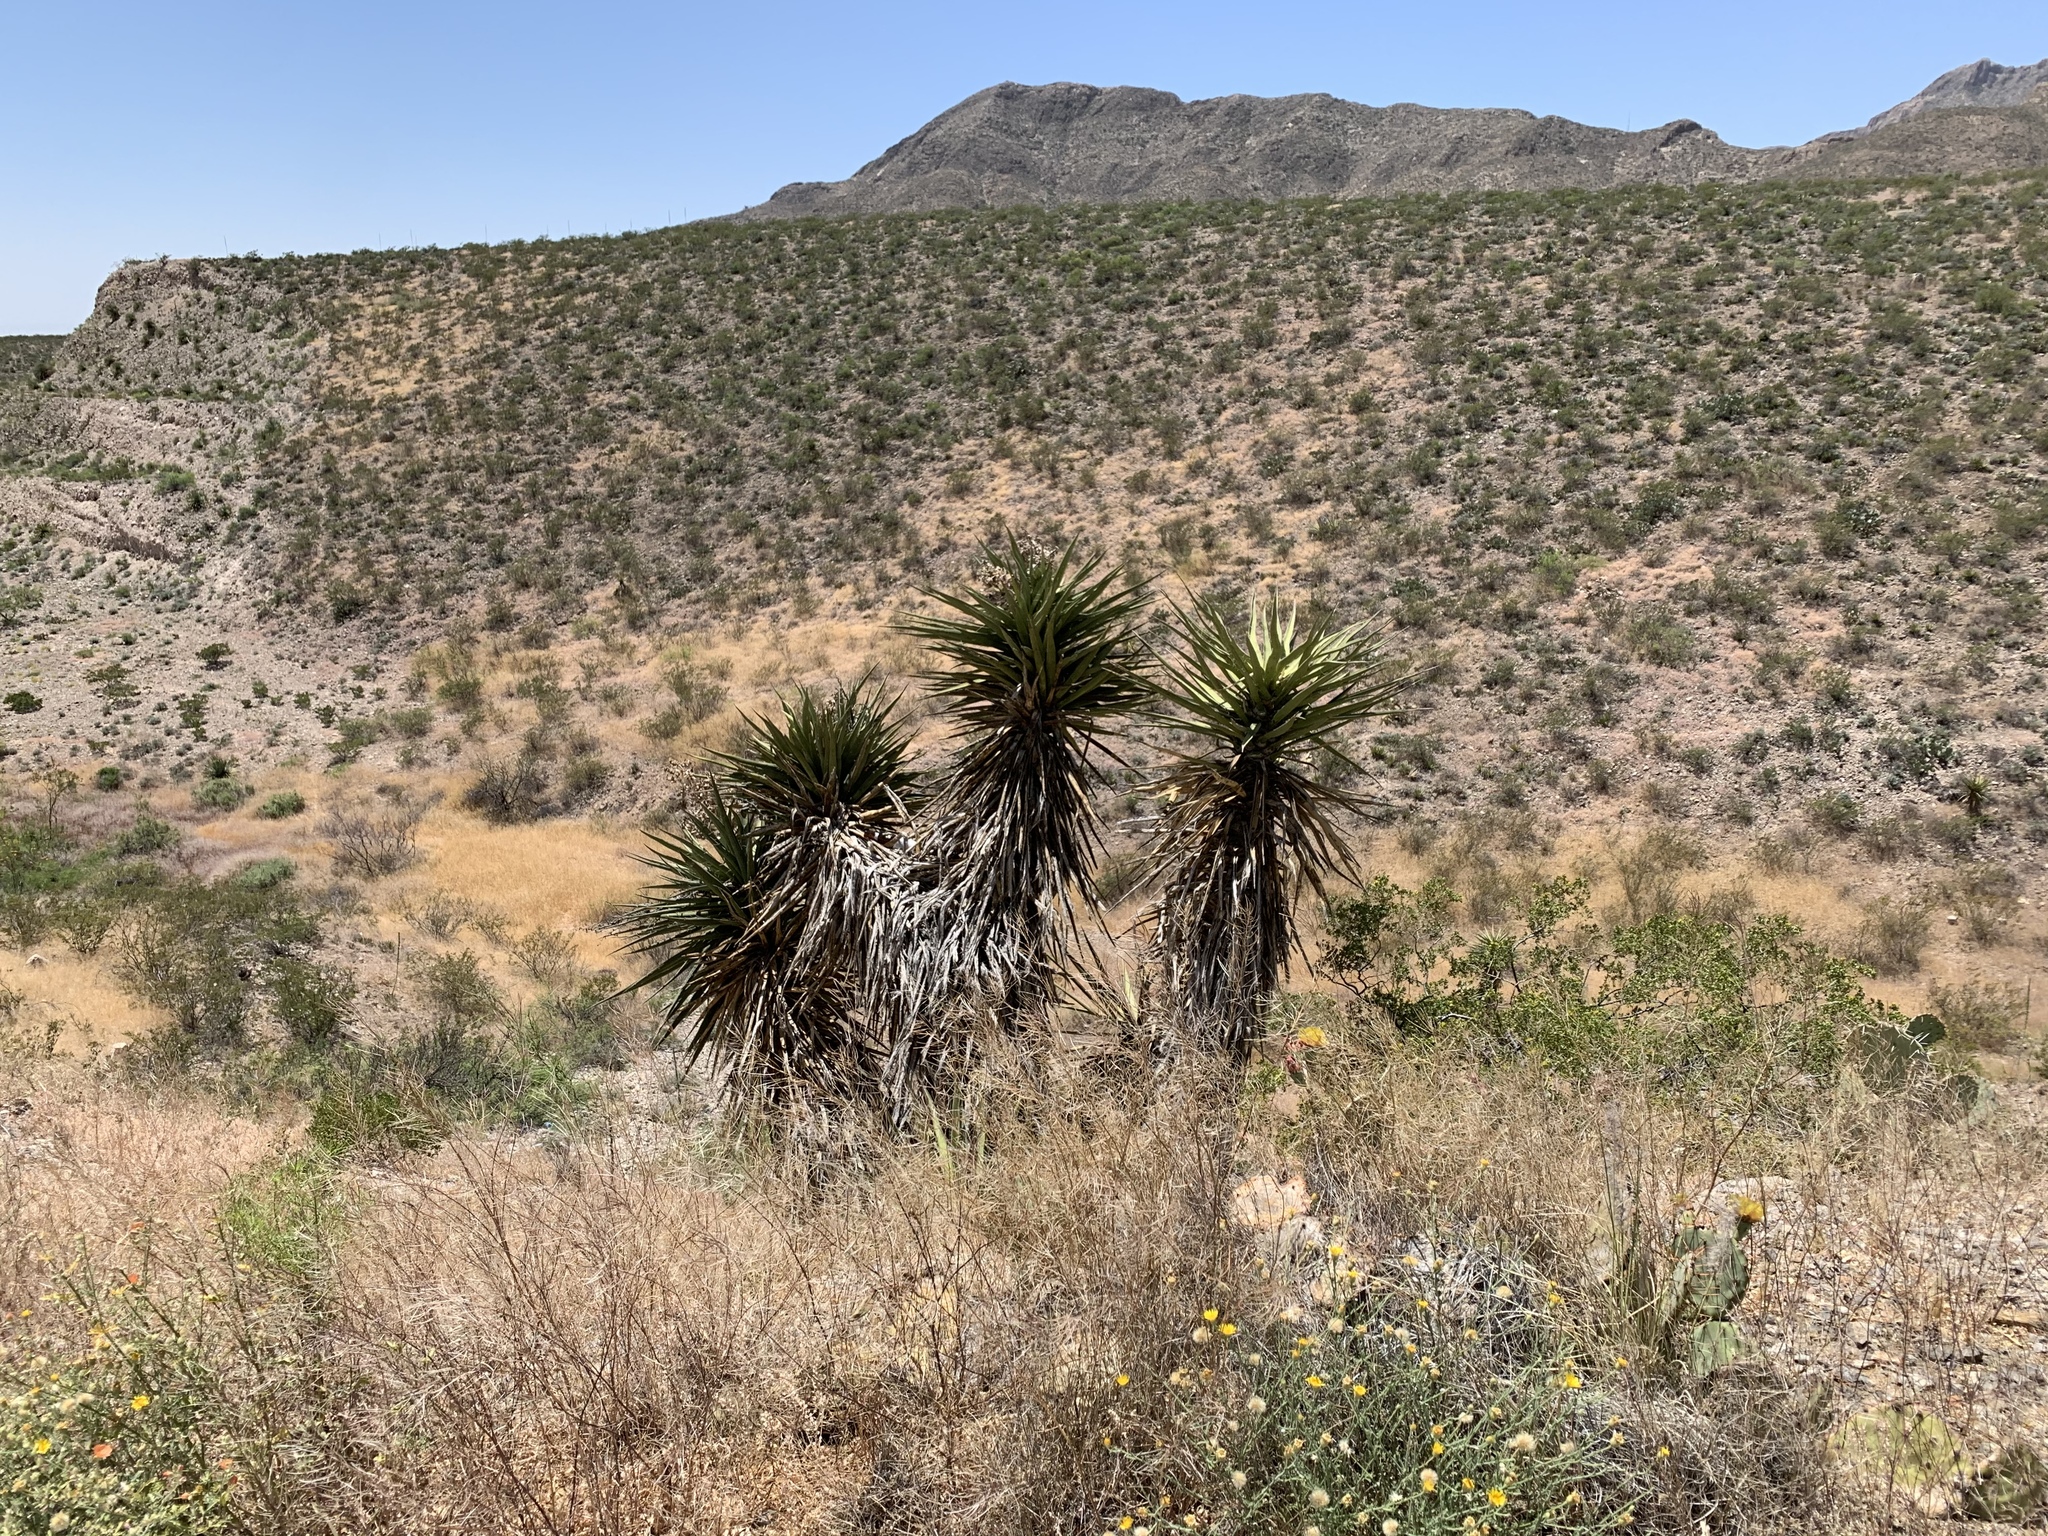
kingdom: Plantae
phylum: Tracheophyta
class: Liliopsida
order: Asparagales
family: Asparagaceae
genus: Yucca
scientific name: Yucca treculiana
